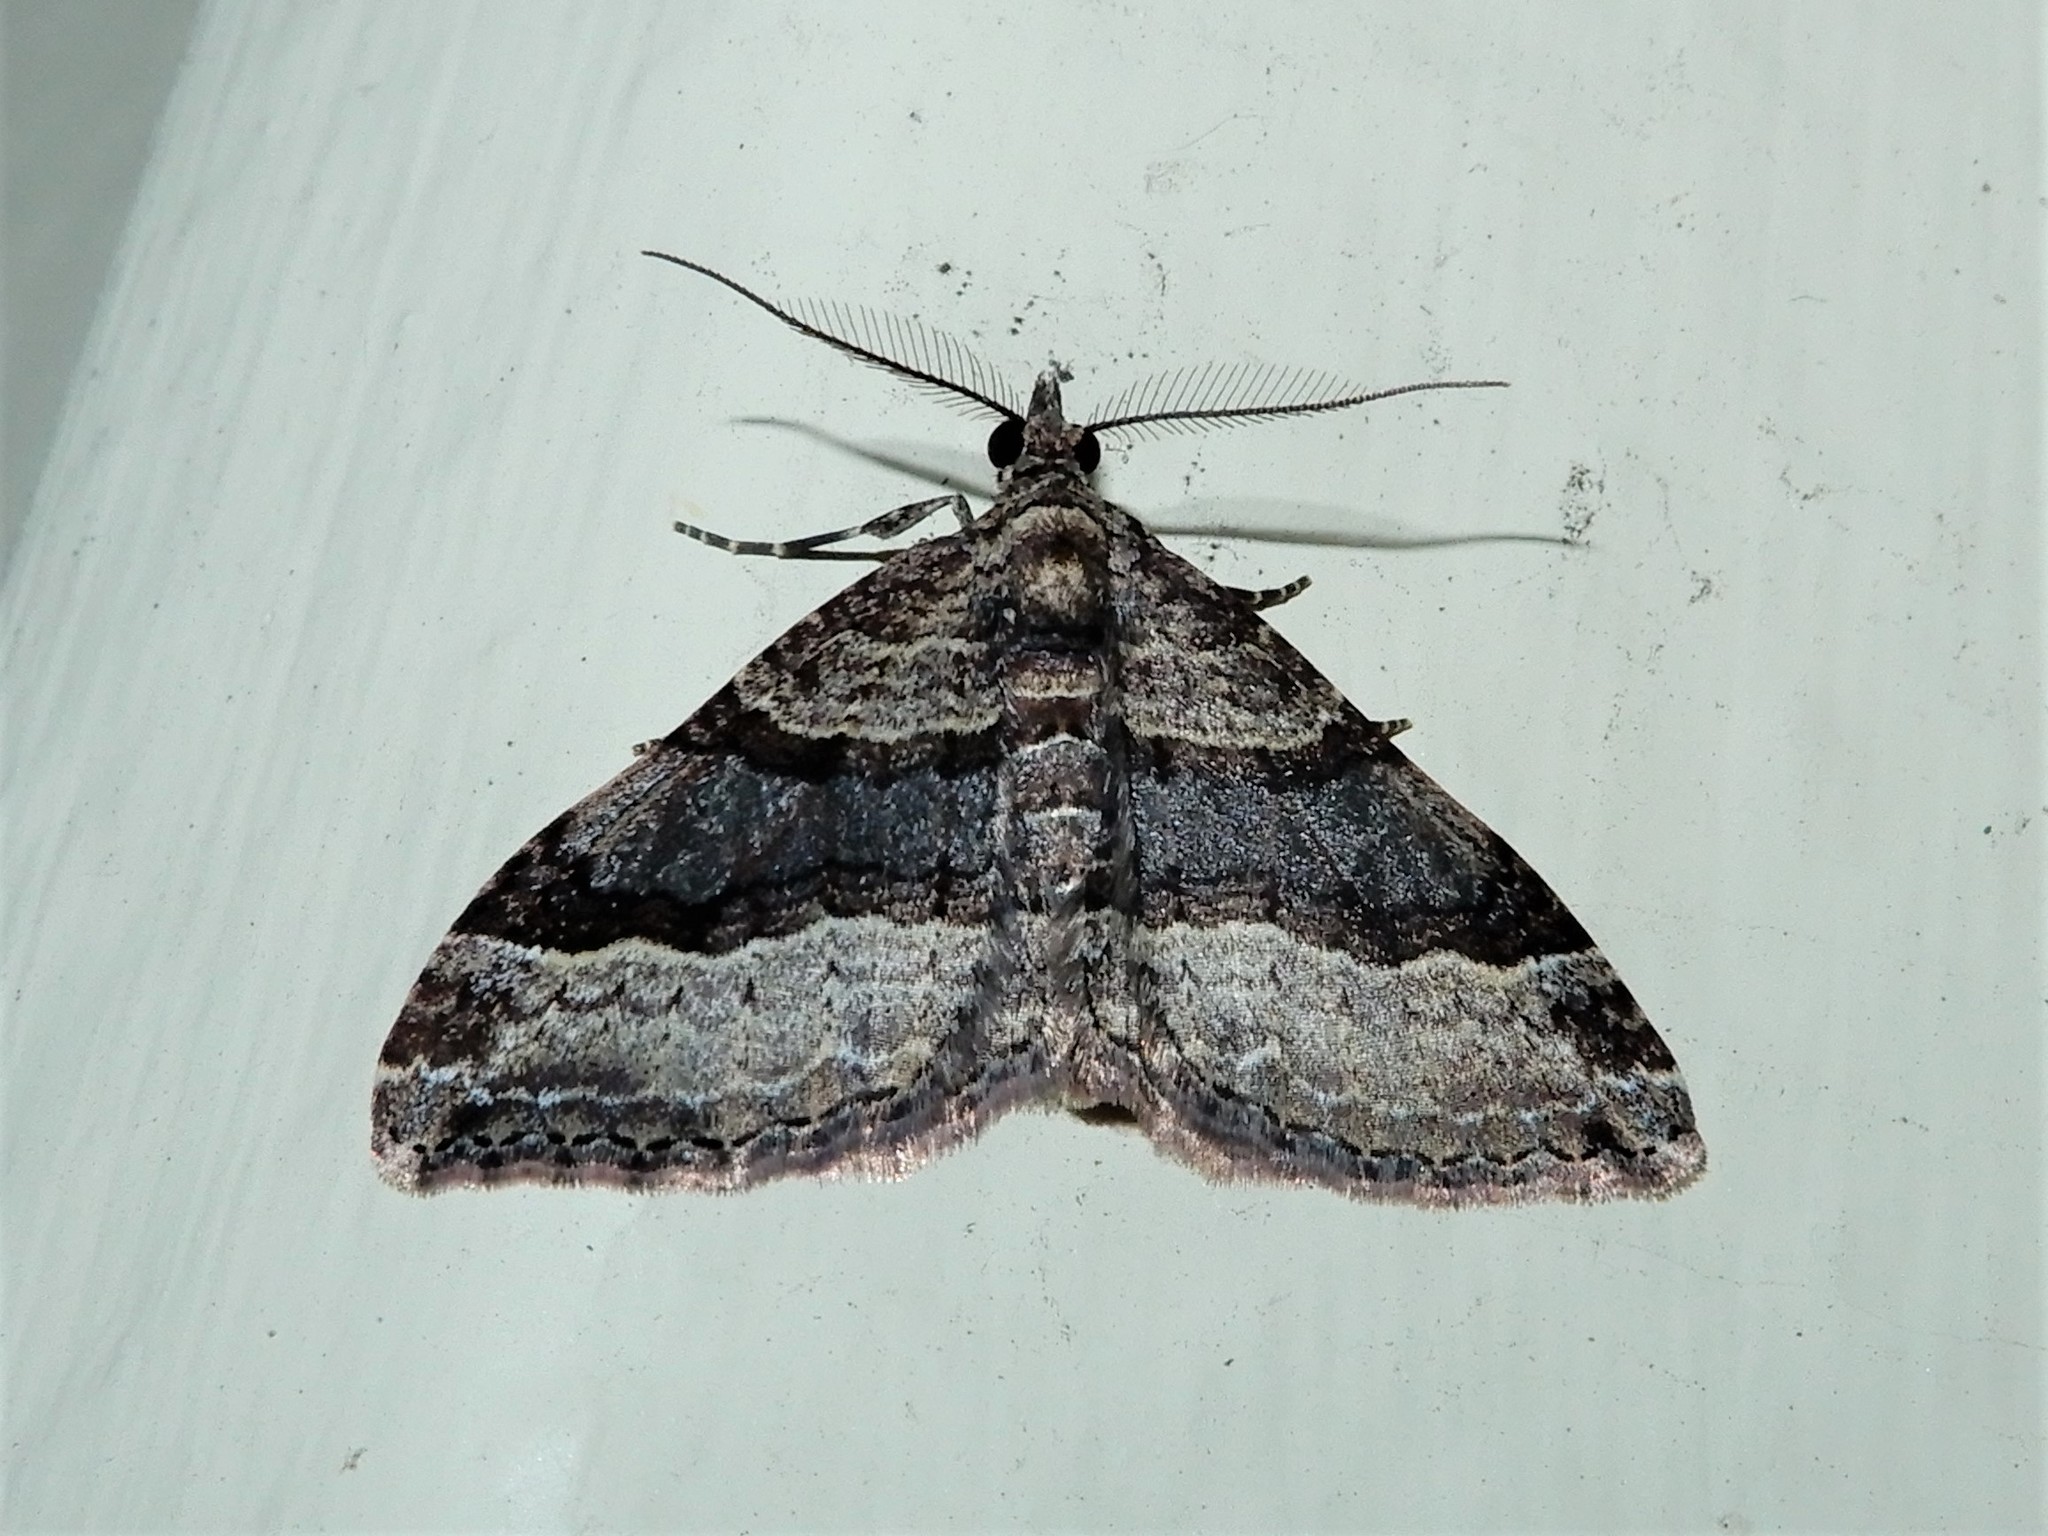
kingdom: Animalia
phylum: Arthropoda
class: Insecta
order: Lepidoptera
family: Geometridae
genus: Epyaxa
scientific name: Epyaxa lucidata
